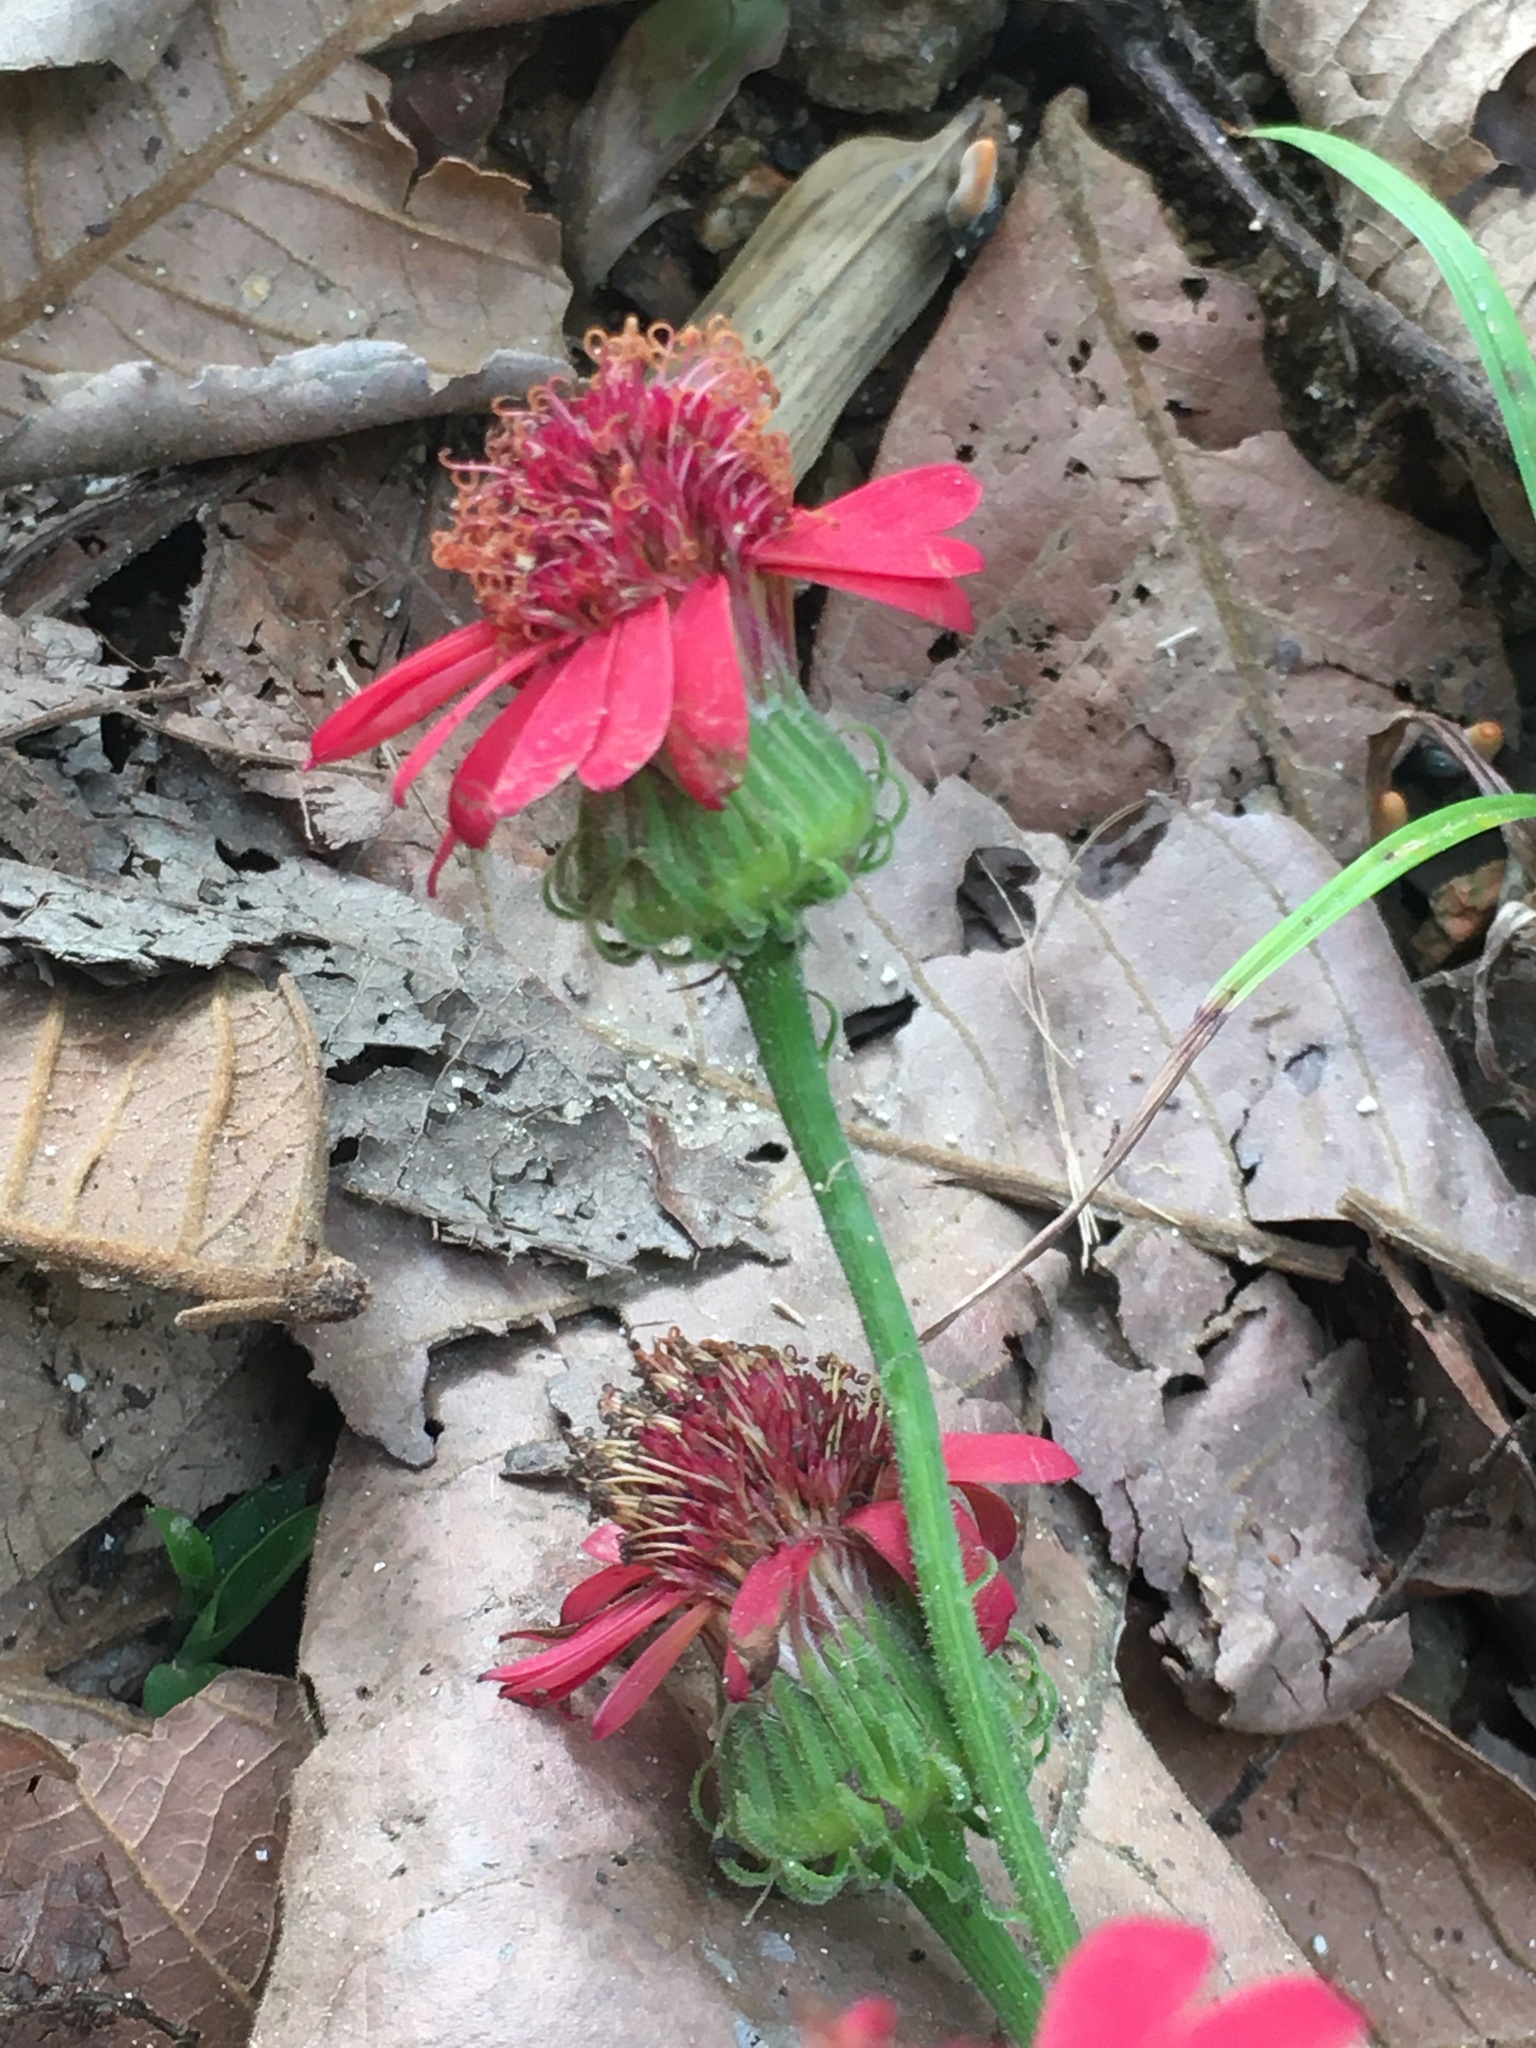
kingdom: Plantae
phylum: Tracheophyta
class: Magnoliopsida
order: Asterales
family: Asteraceae
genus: Pseudogynoxys
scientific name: Pseudogynoxys haenkei
